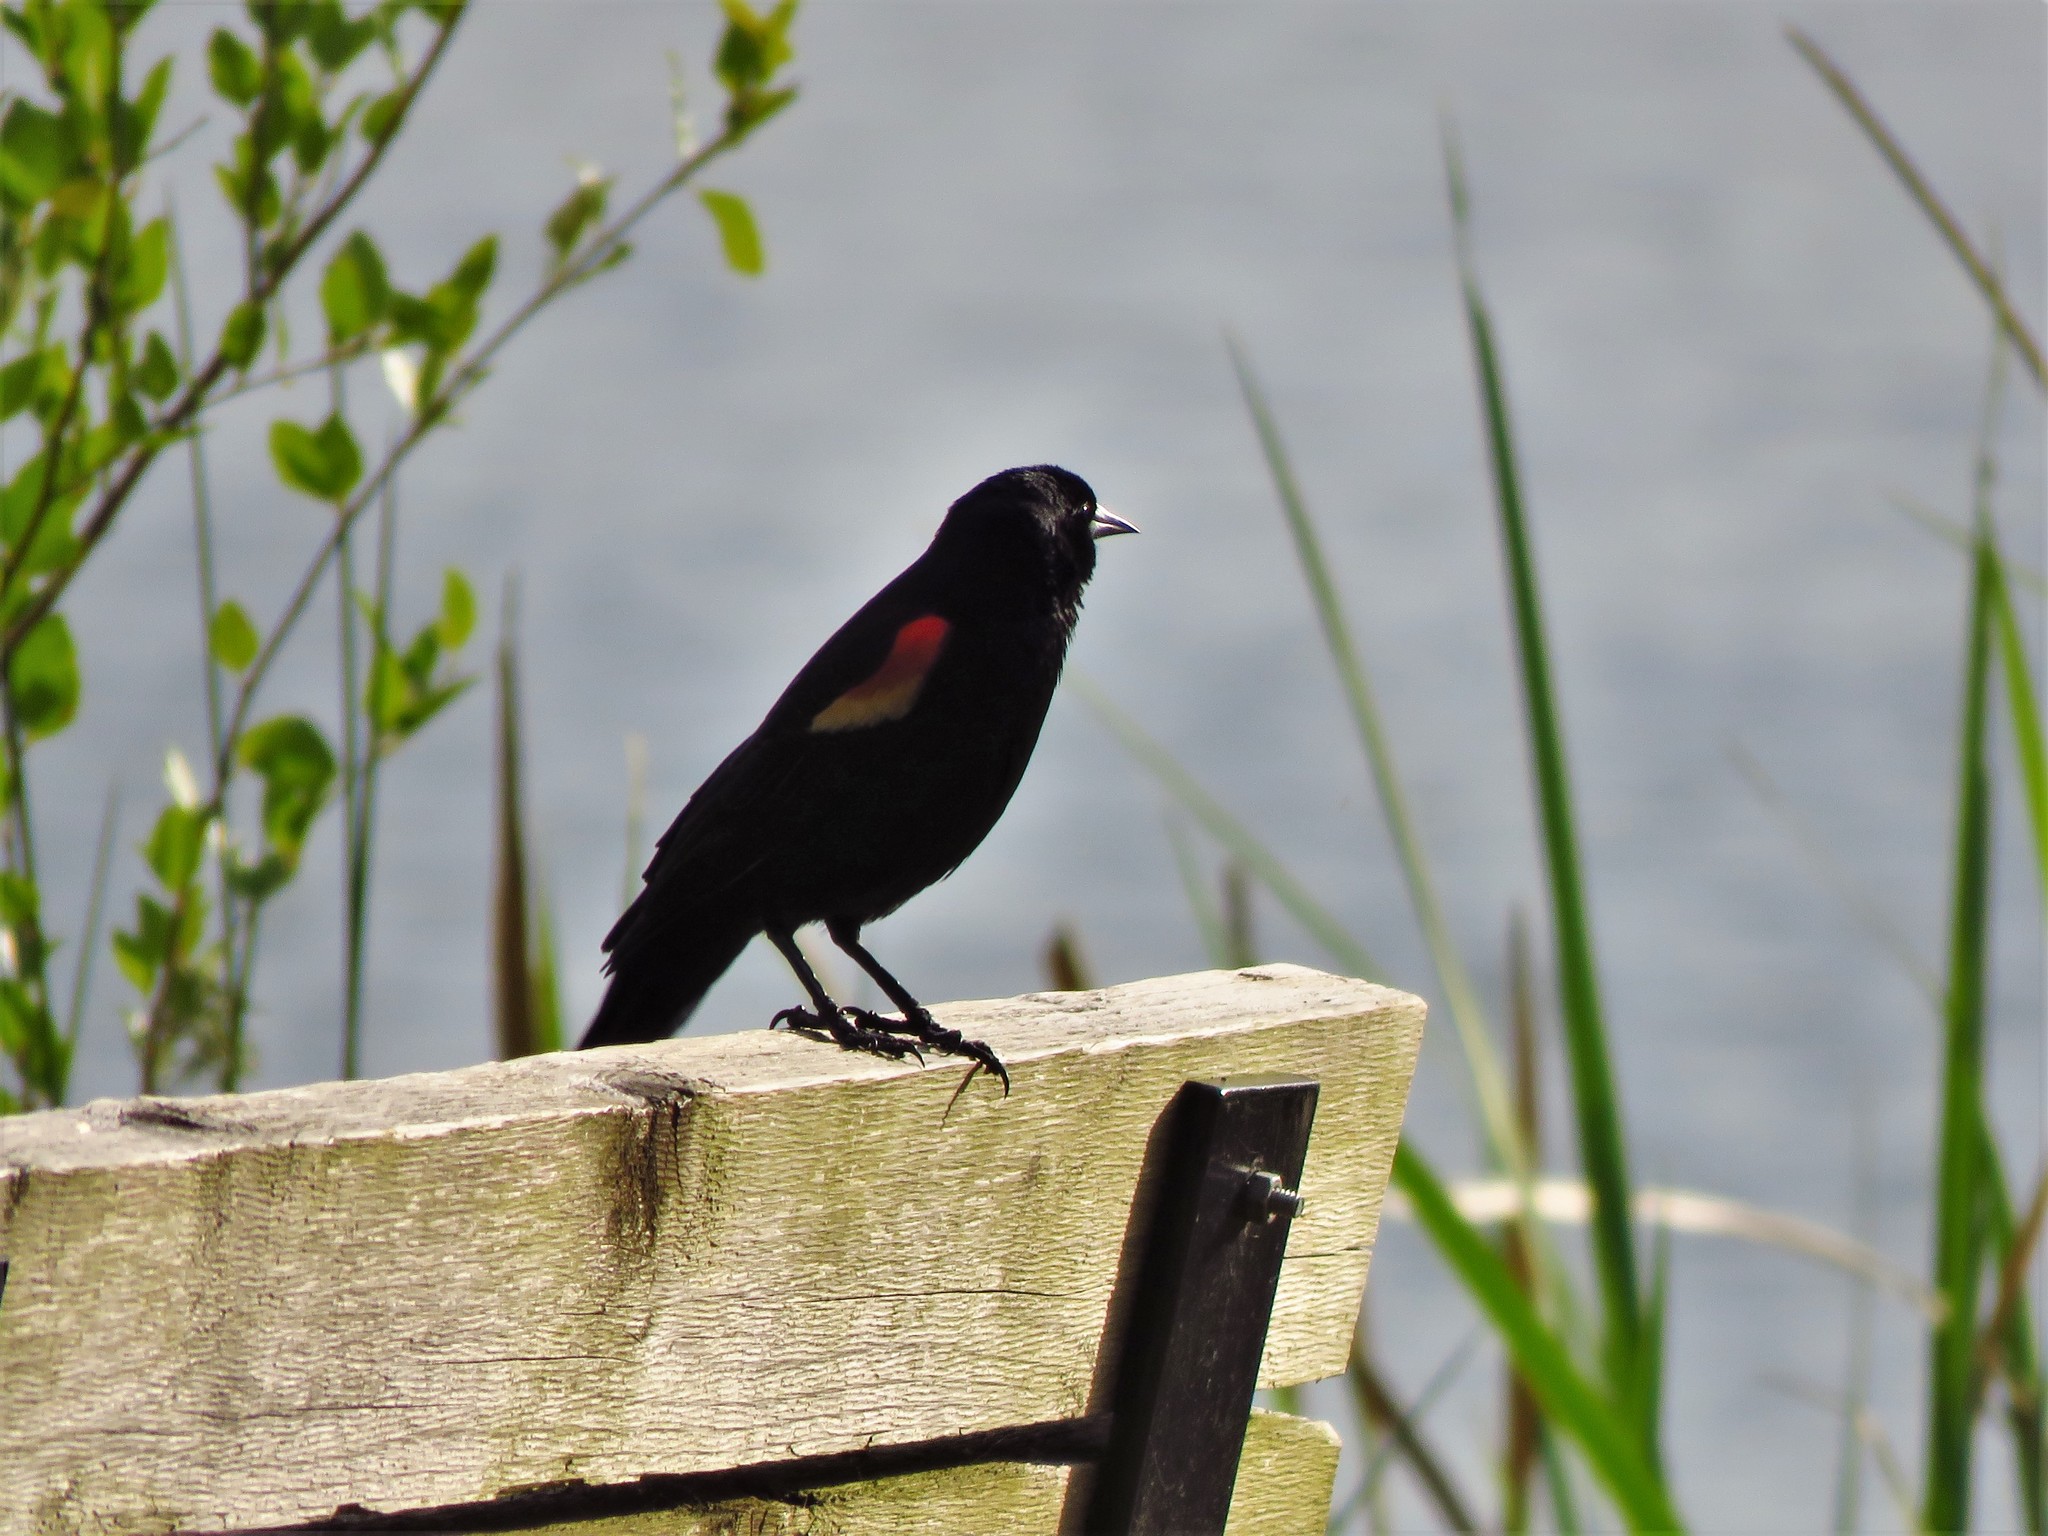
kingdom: Animalia
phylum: Chordata
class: Aves
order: Passeriformes
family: Icteridae
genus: Agelaius
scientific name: Agelaius phoeniceus
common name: Red-winged blackbird
